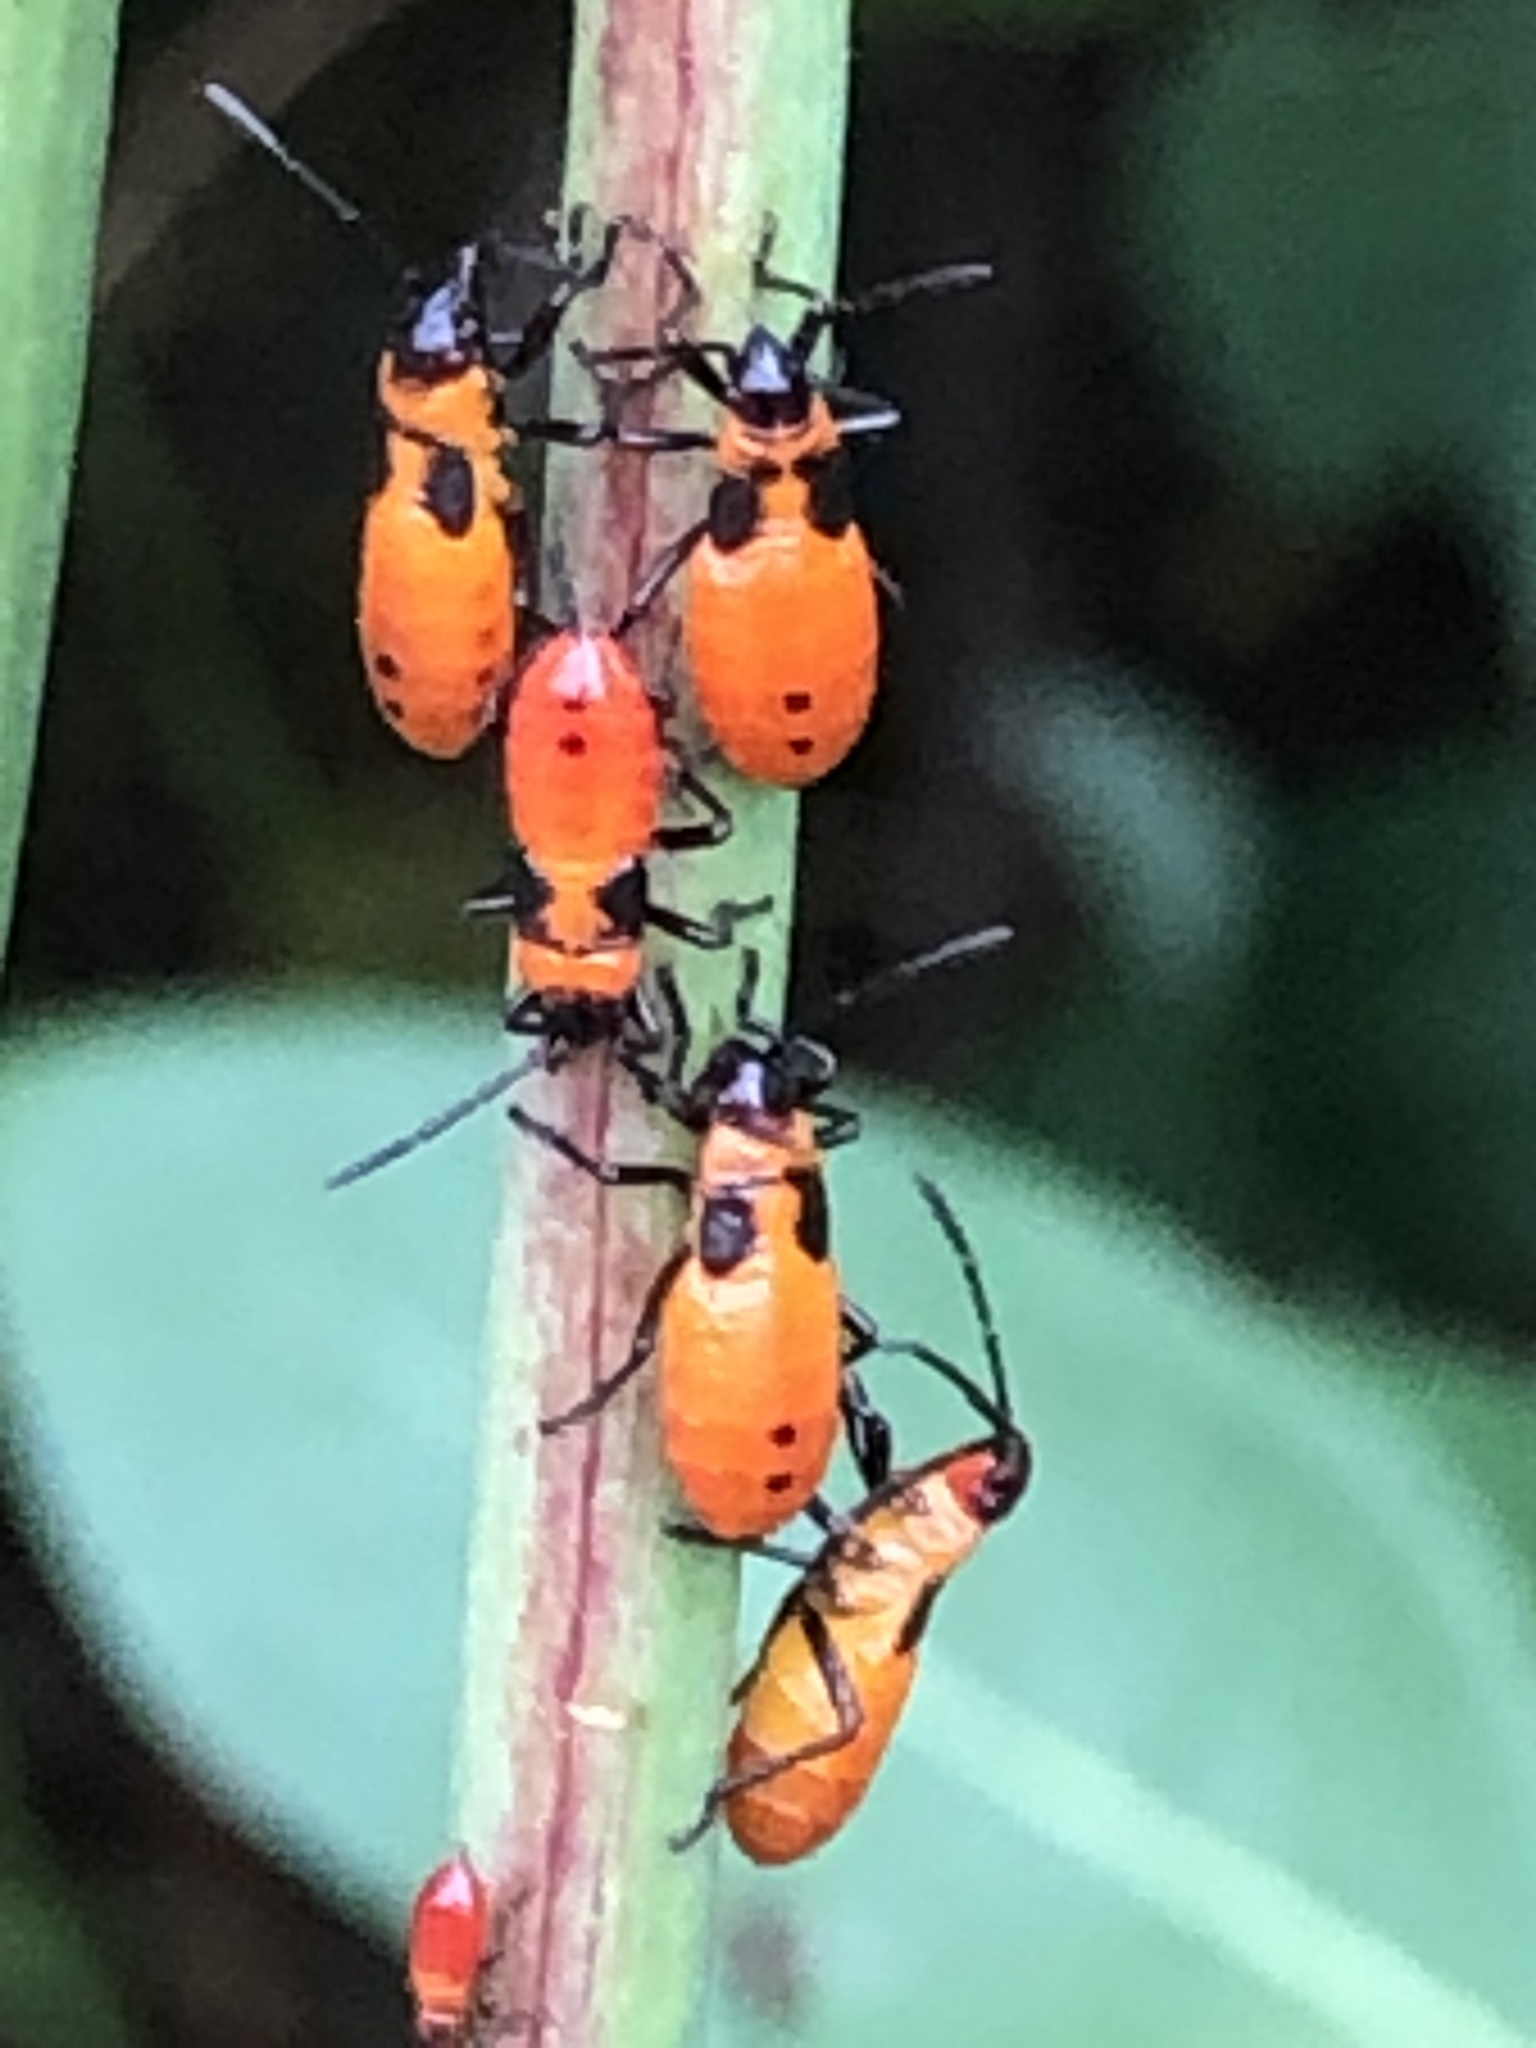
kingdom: Animalia
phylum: Arthropoda
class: Insecta
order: Hemiptera
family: Lygaeidae
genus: Oncopeltus
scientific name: Oncopeltus fasciatus
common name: Large milkweed bug
